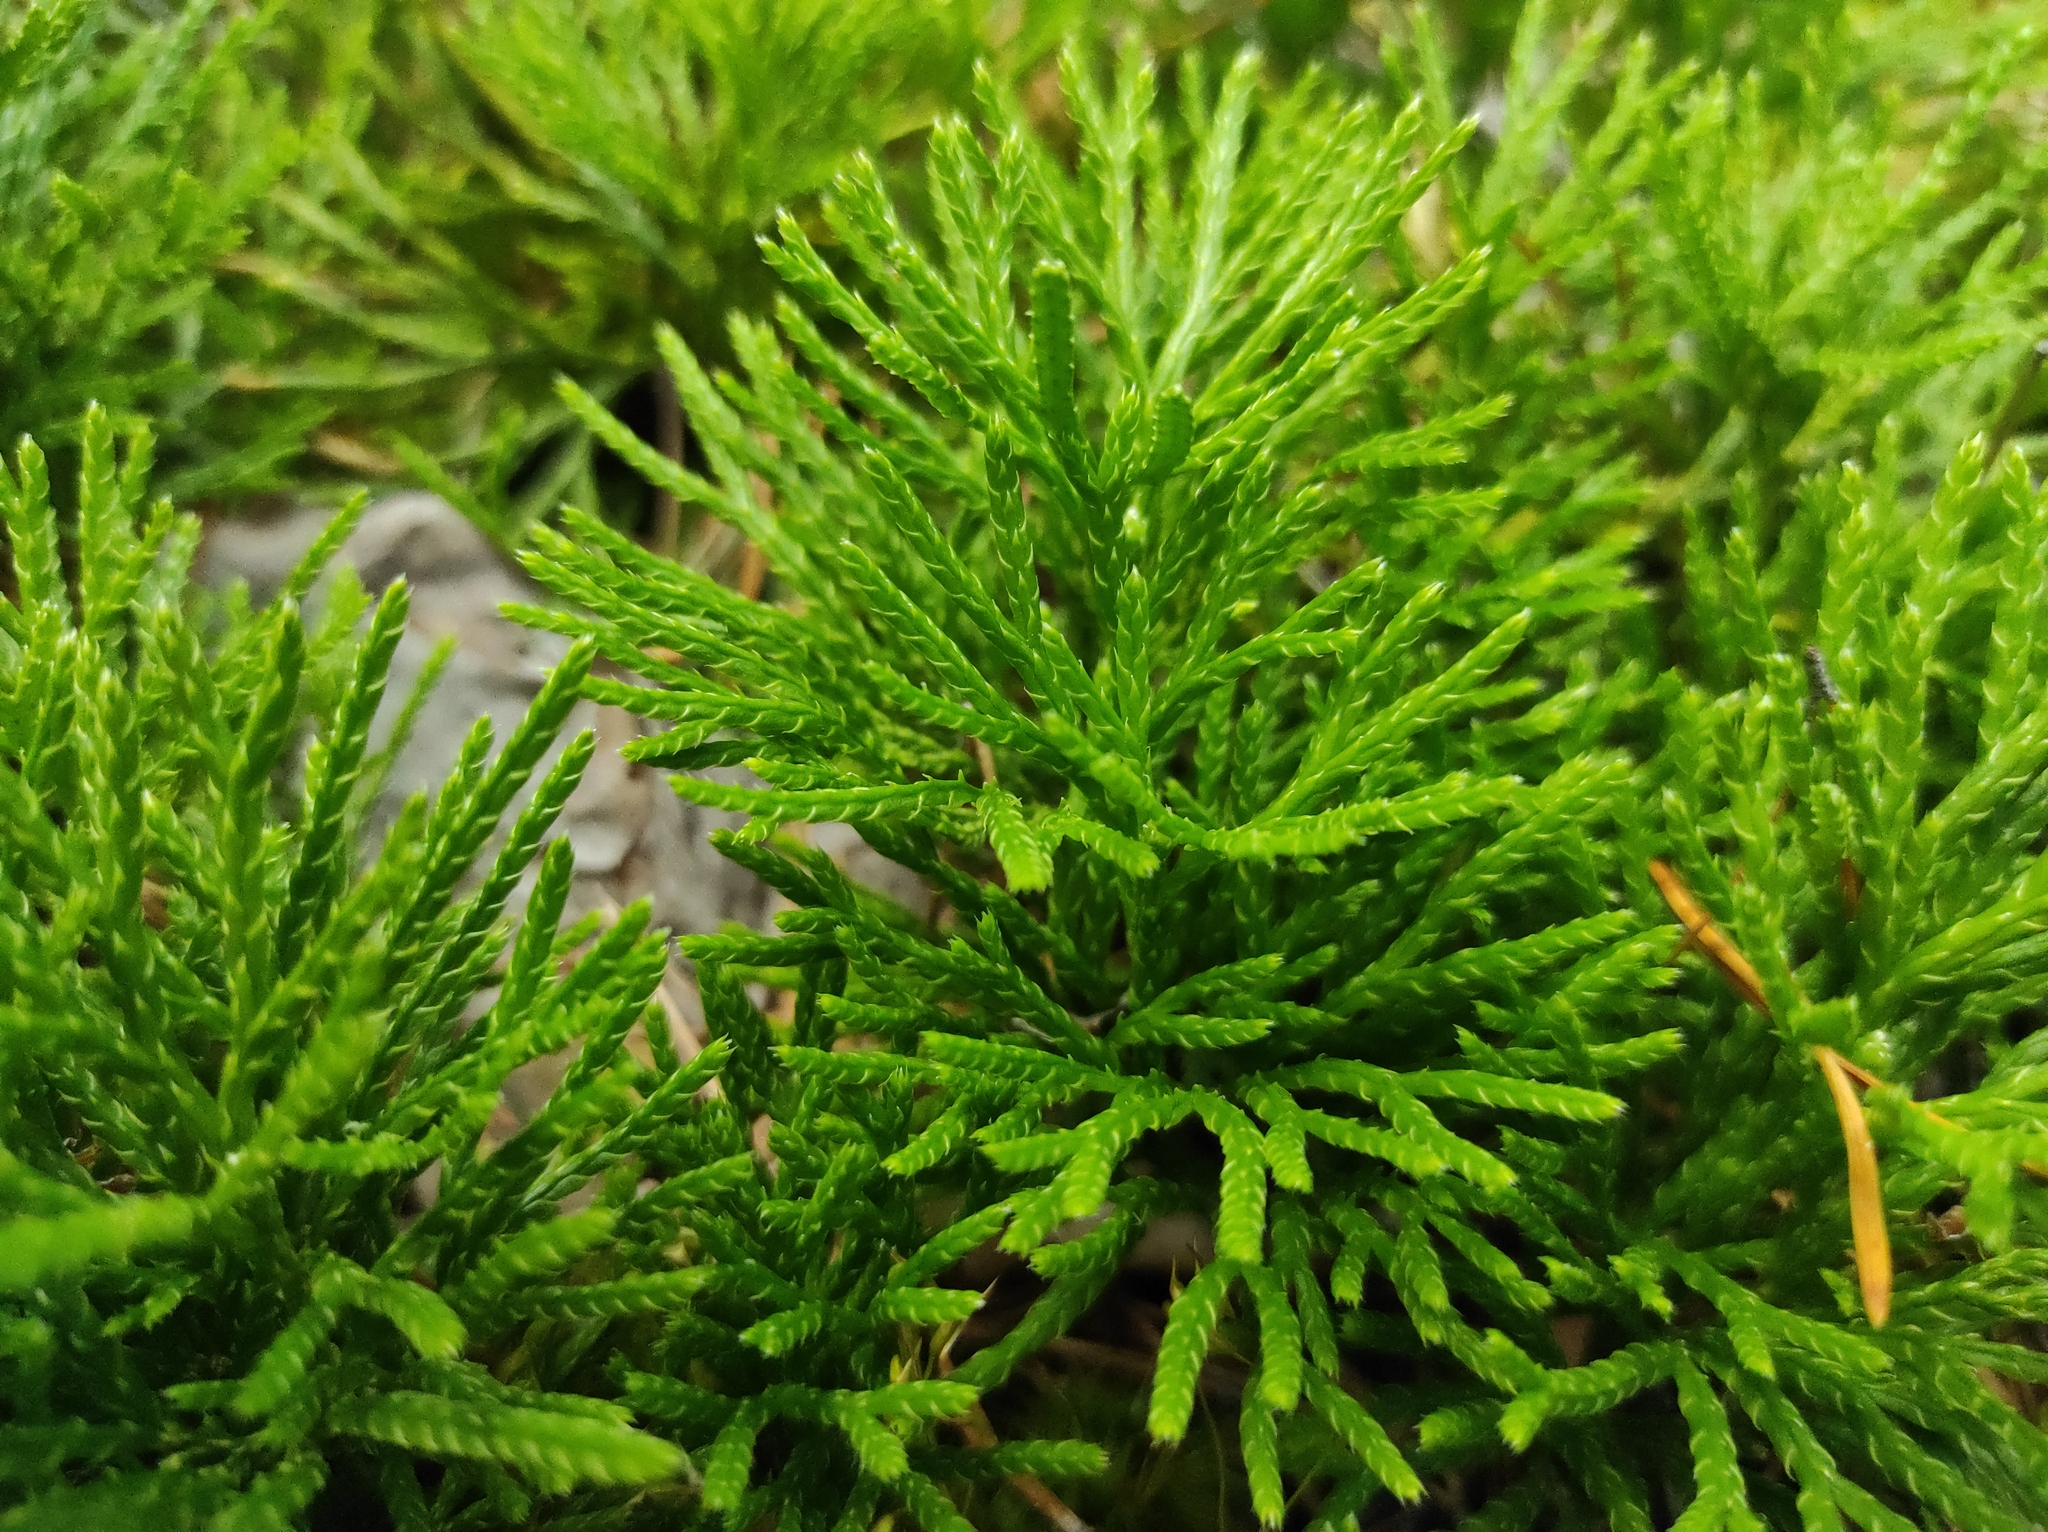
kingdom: Plantae
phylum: Tracheophyta
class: Lycopodiopsida
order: Lycopodiales
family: Lycopodiaceae
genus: Diphasiastrum
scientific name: Diphasiastrum complanatum
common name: Northern running-pine
